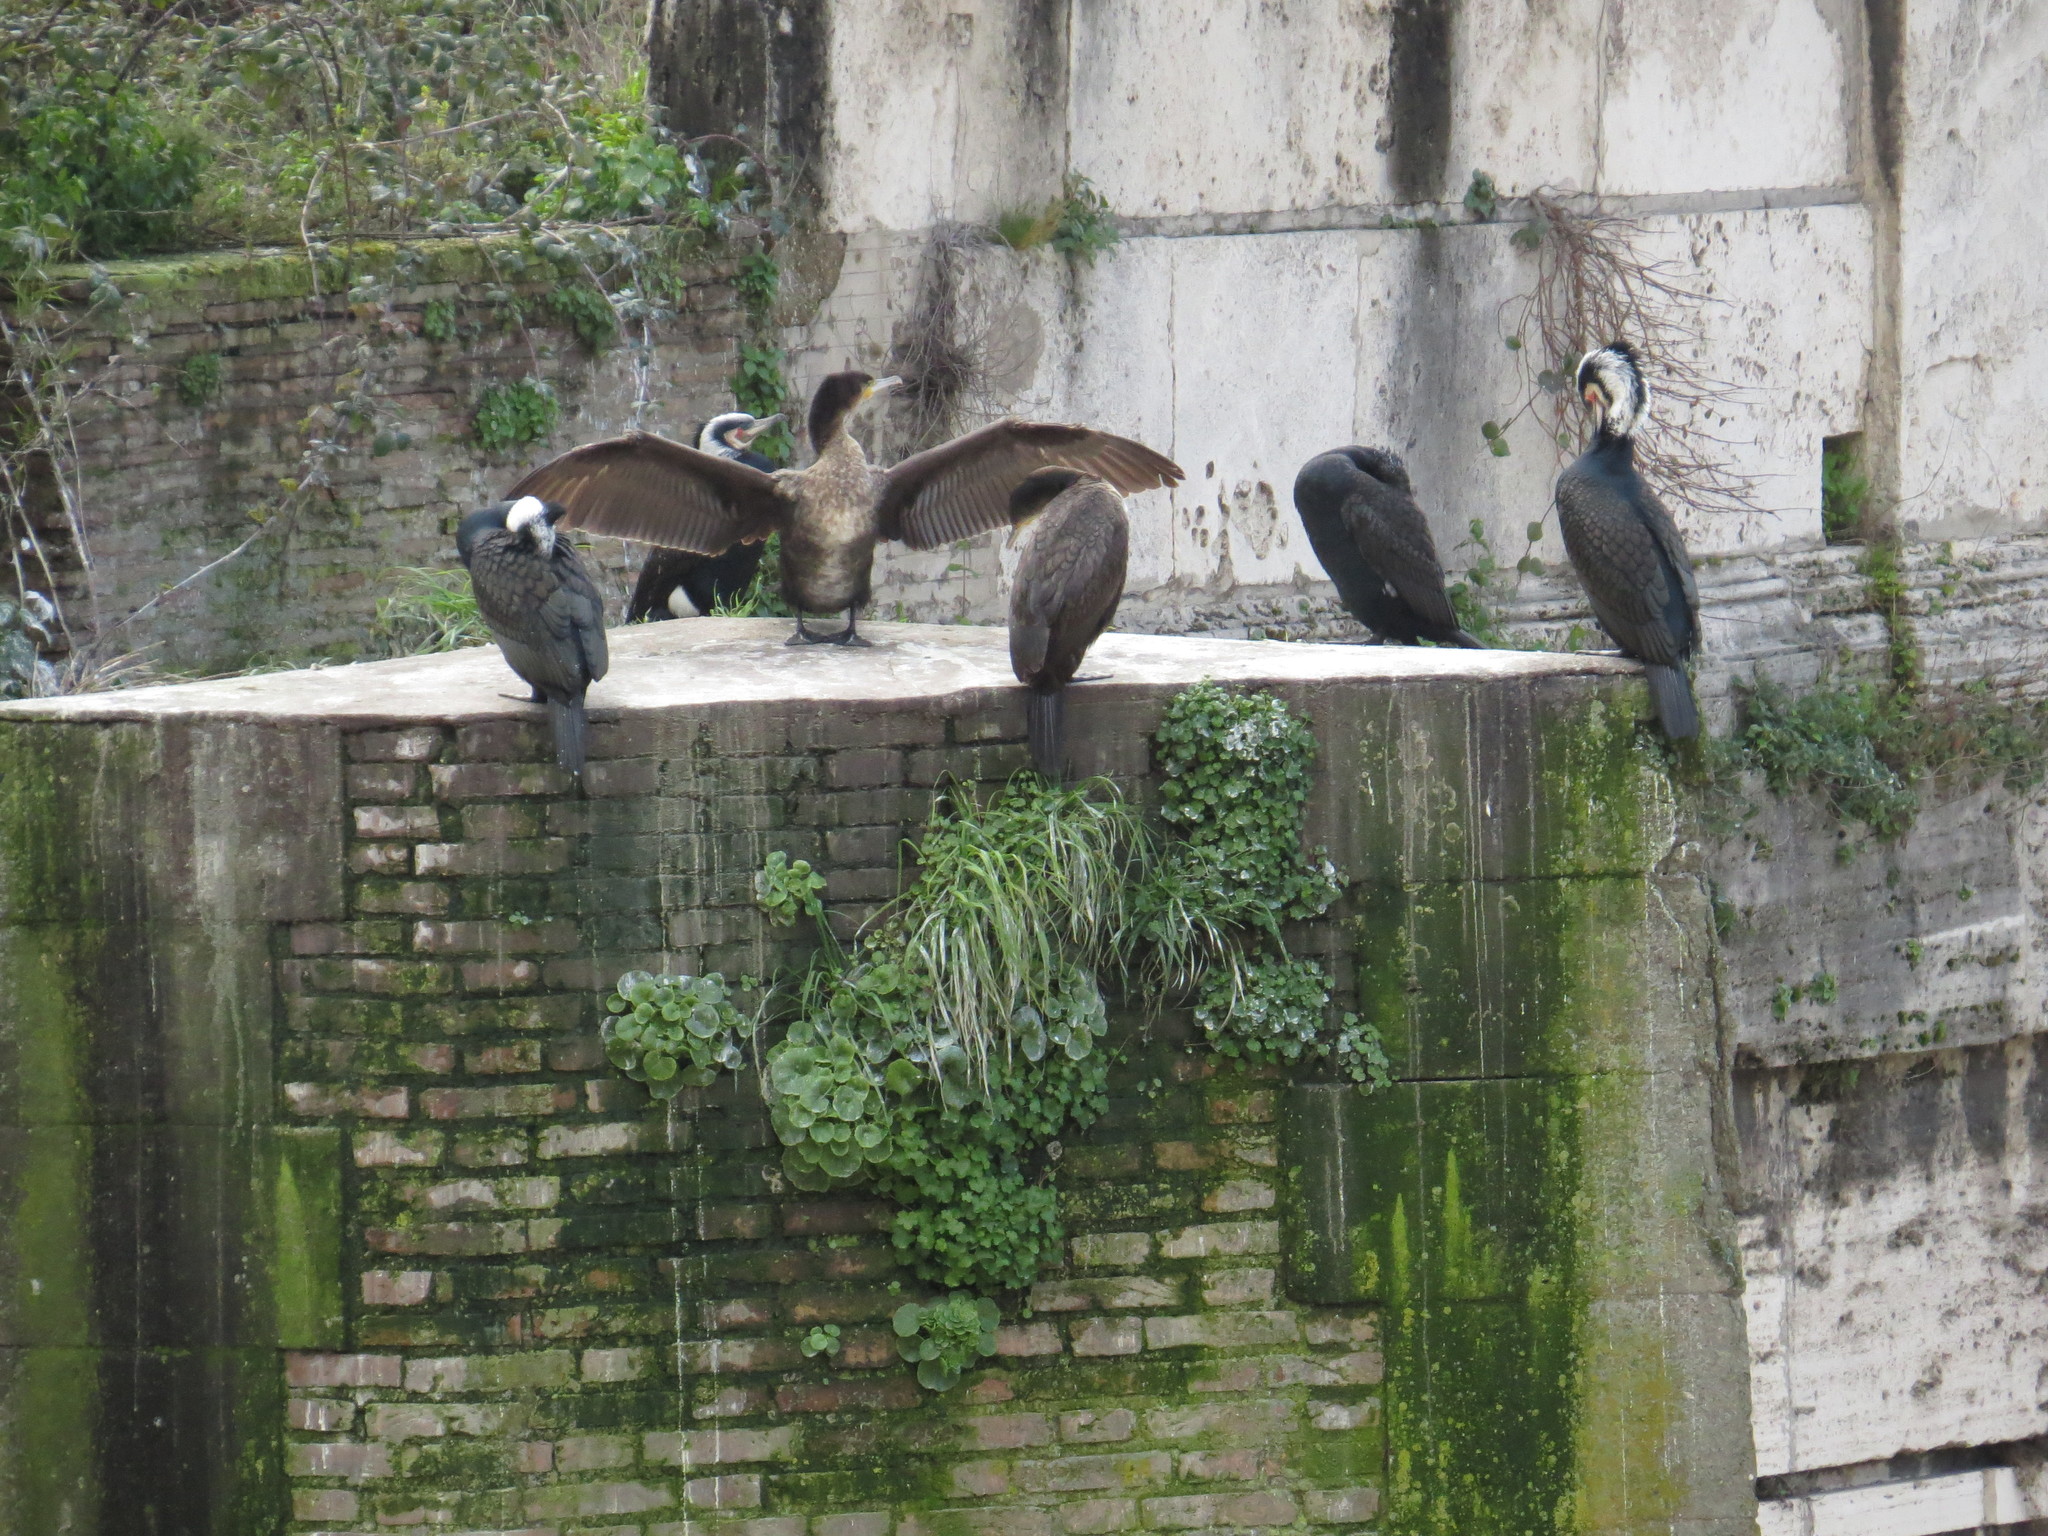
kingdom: Animalia
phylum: Chordata
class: Aves
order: Suliformes
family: Phalacrocoracidae
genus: Phalacrocorax
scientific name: Phalacrocorax carbo
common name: Great cormorant
